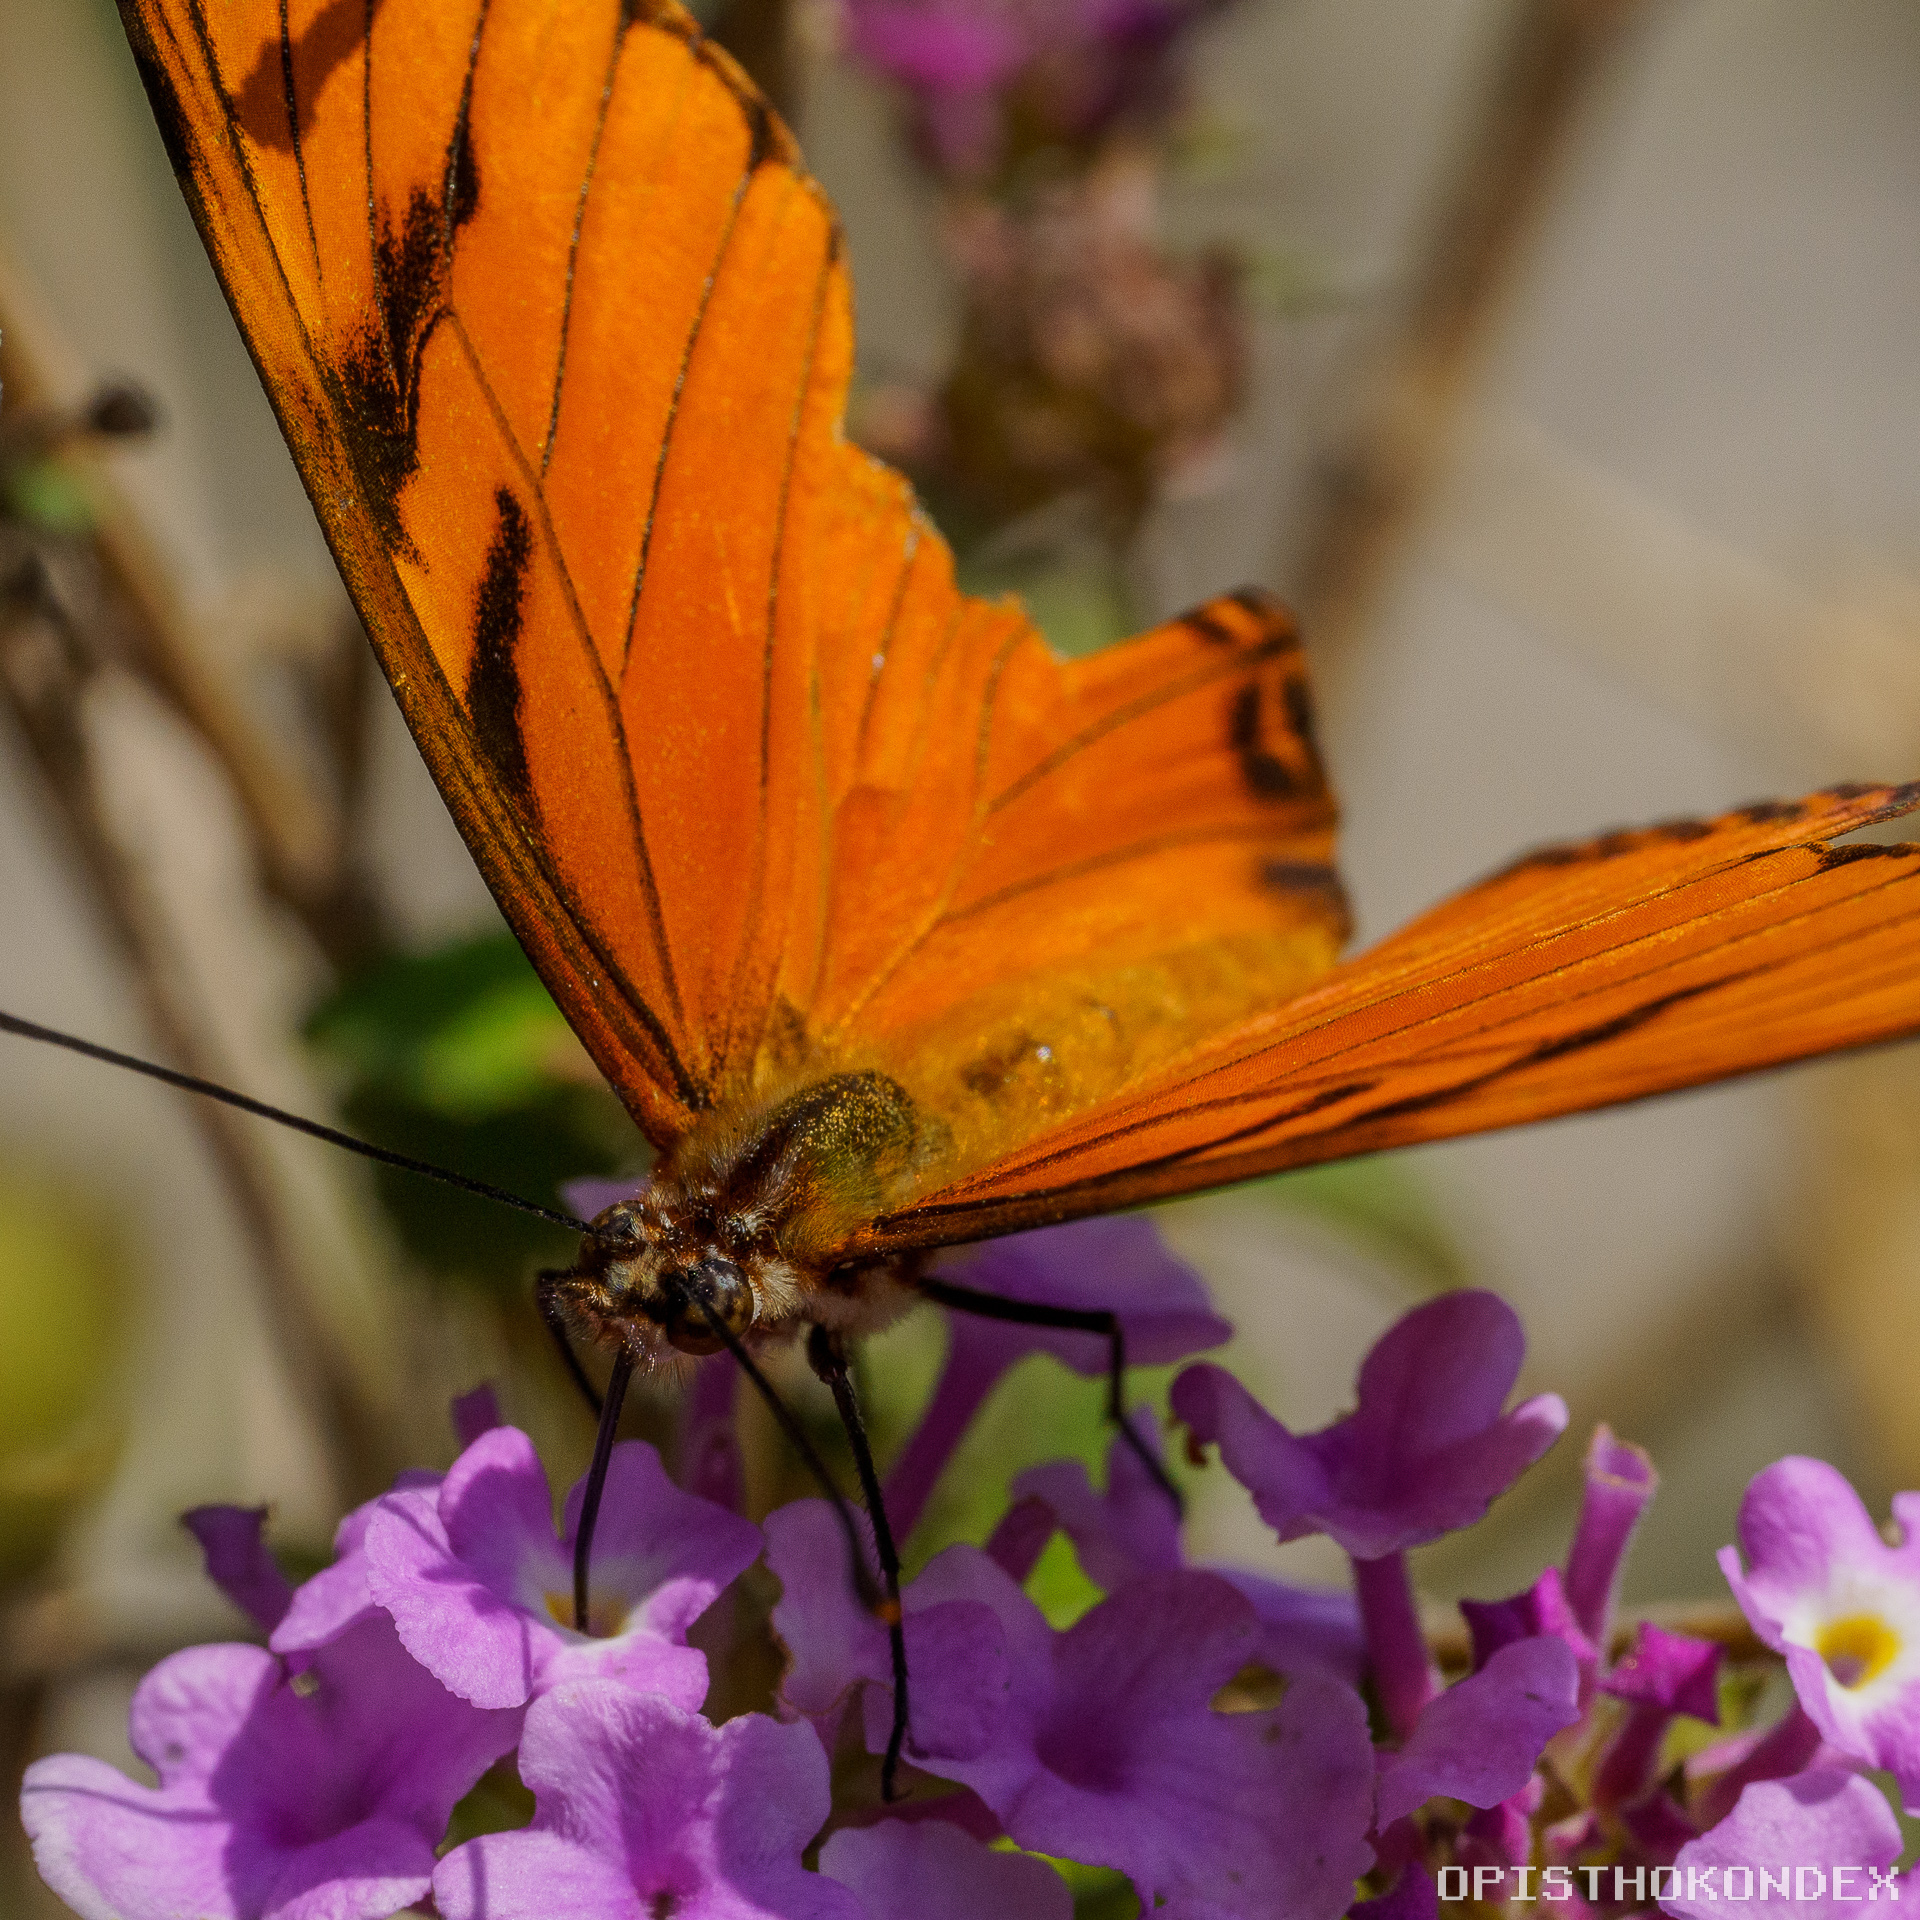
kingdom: Animalia
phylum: Arthropoda
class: Insecta
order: Lepidoptera
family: Nymphalidae
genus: Dione
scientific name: Dione juno
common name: Juno silverspot
